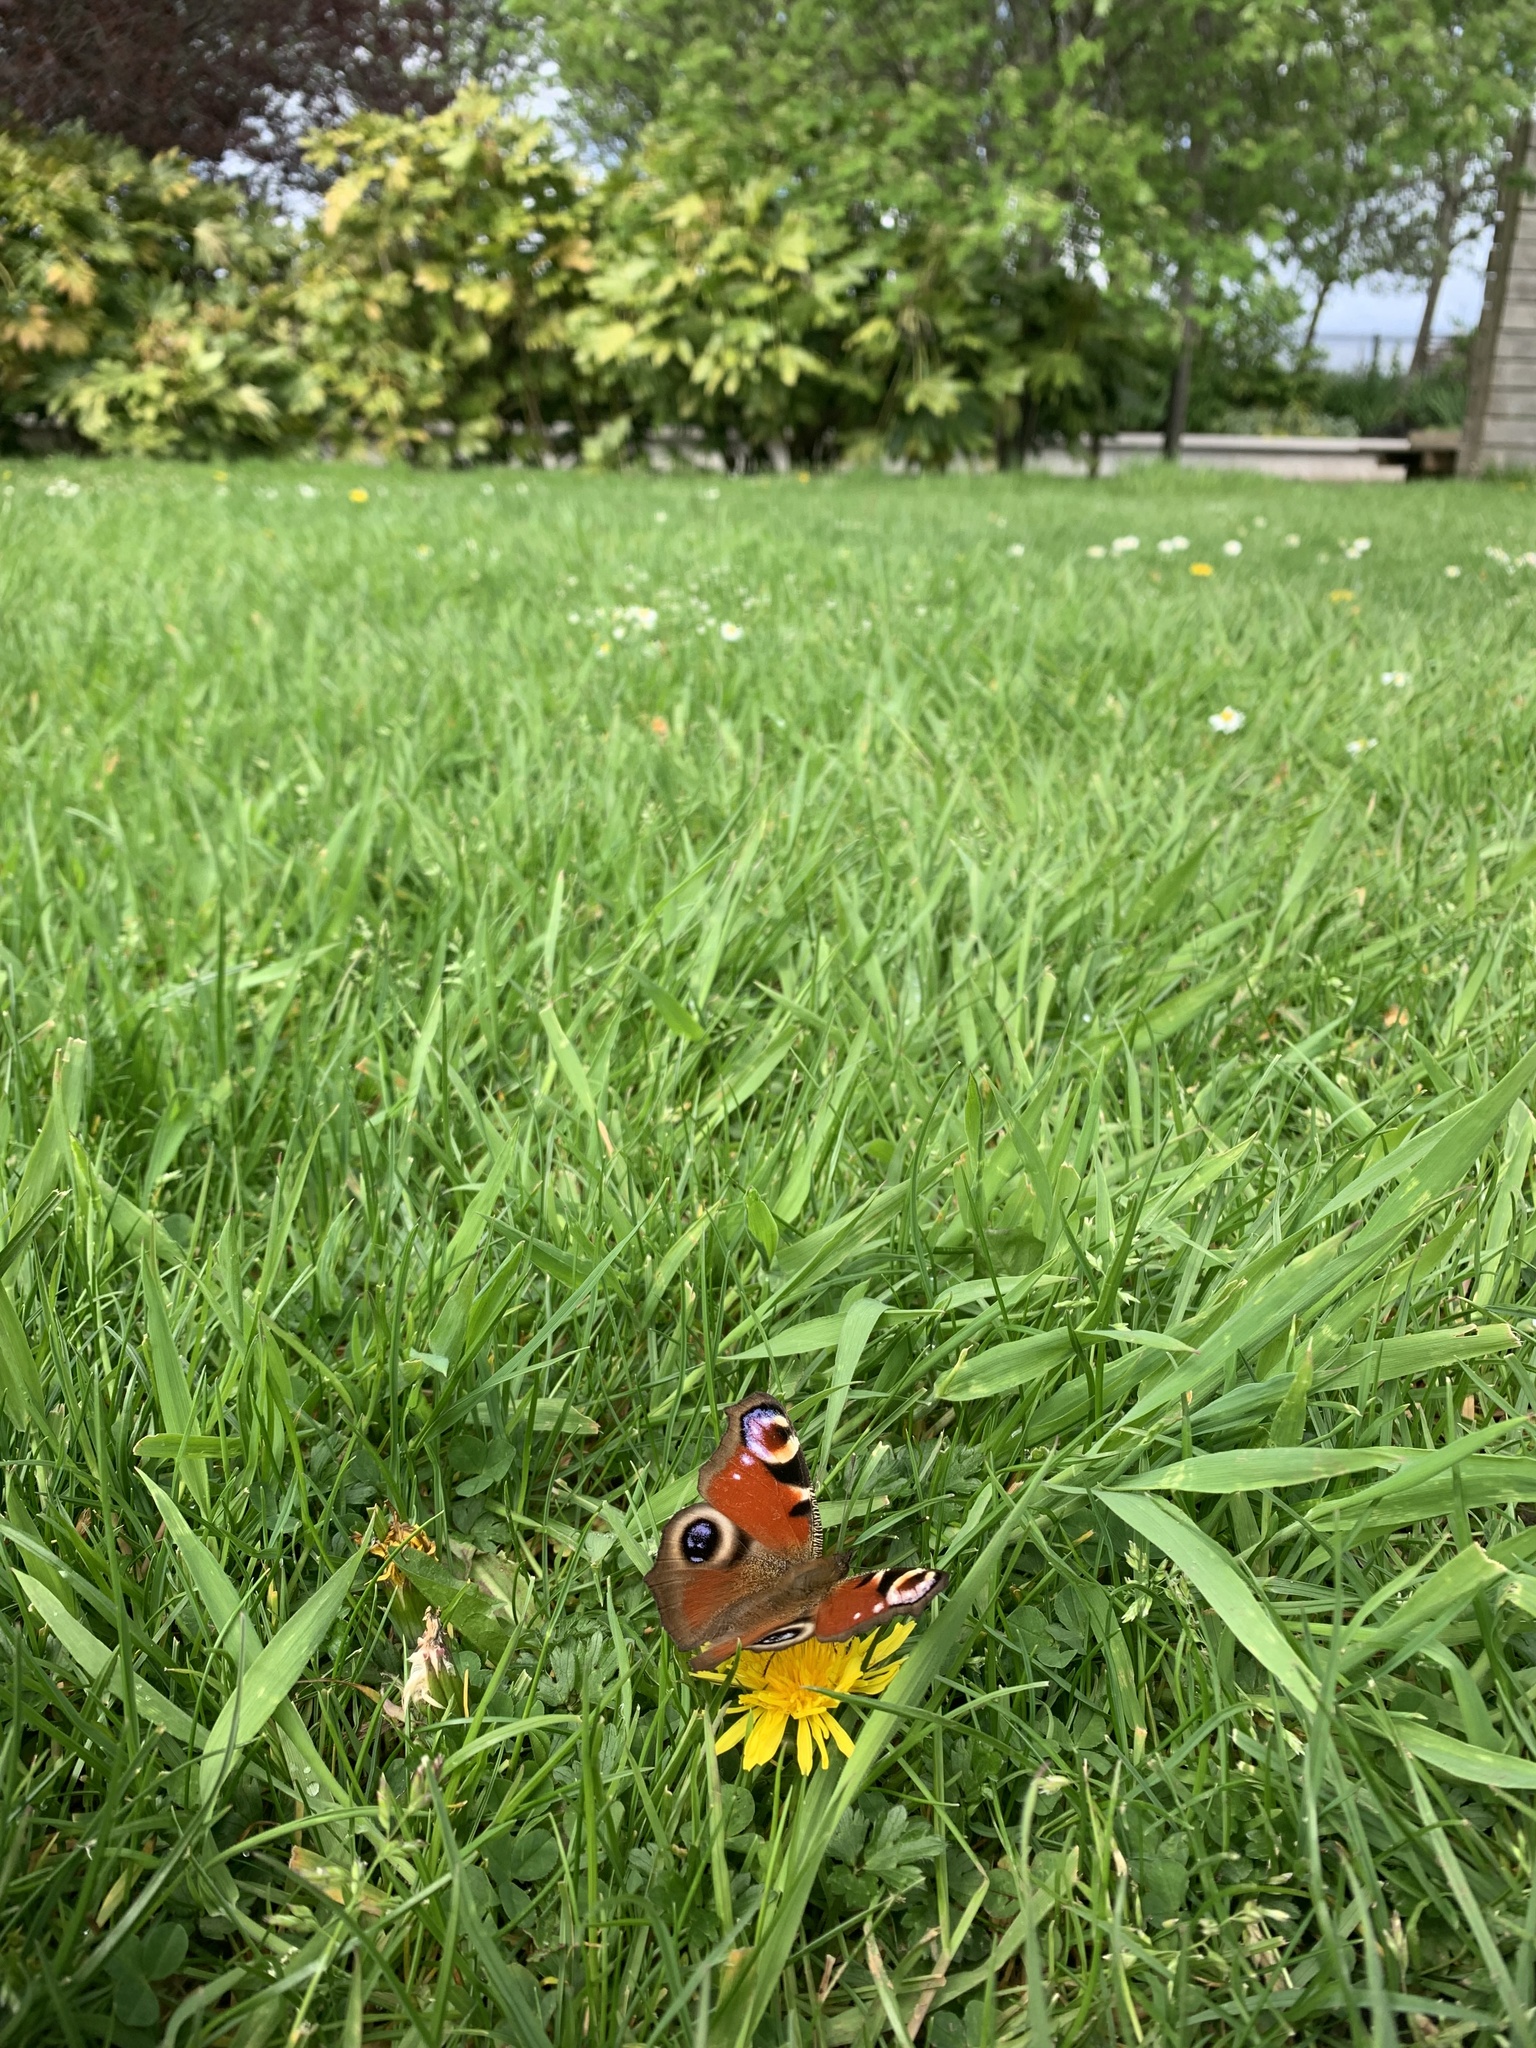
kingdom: Animalia
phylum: Arthropoda
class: Insecta
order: Lepidoptera
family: Nymphalidae
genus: Aglais
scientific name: Aglais io
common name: Peacock
